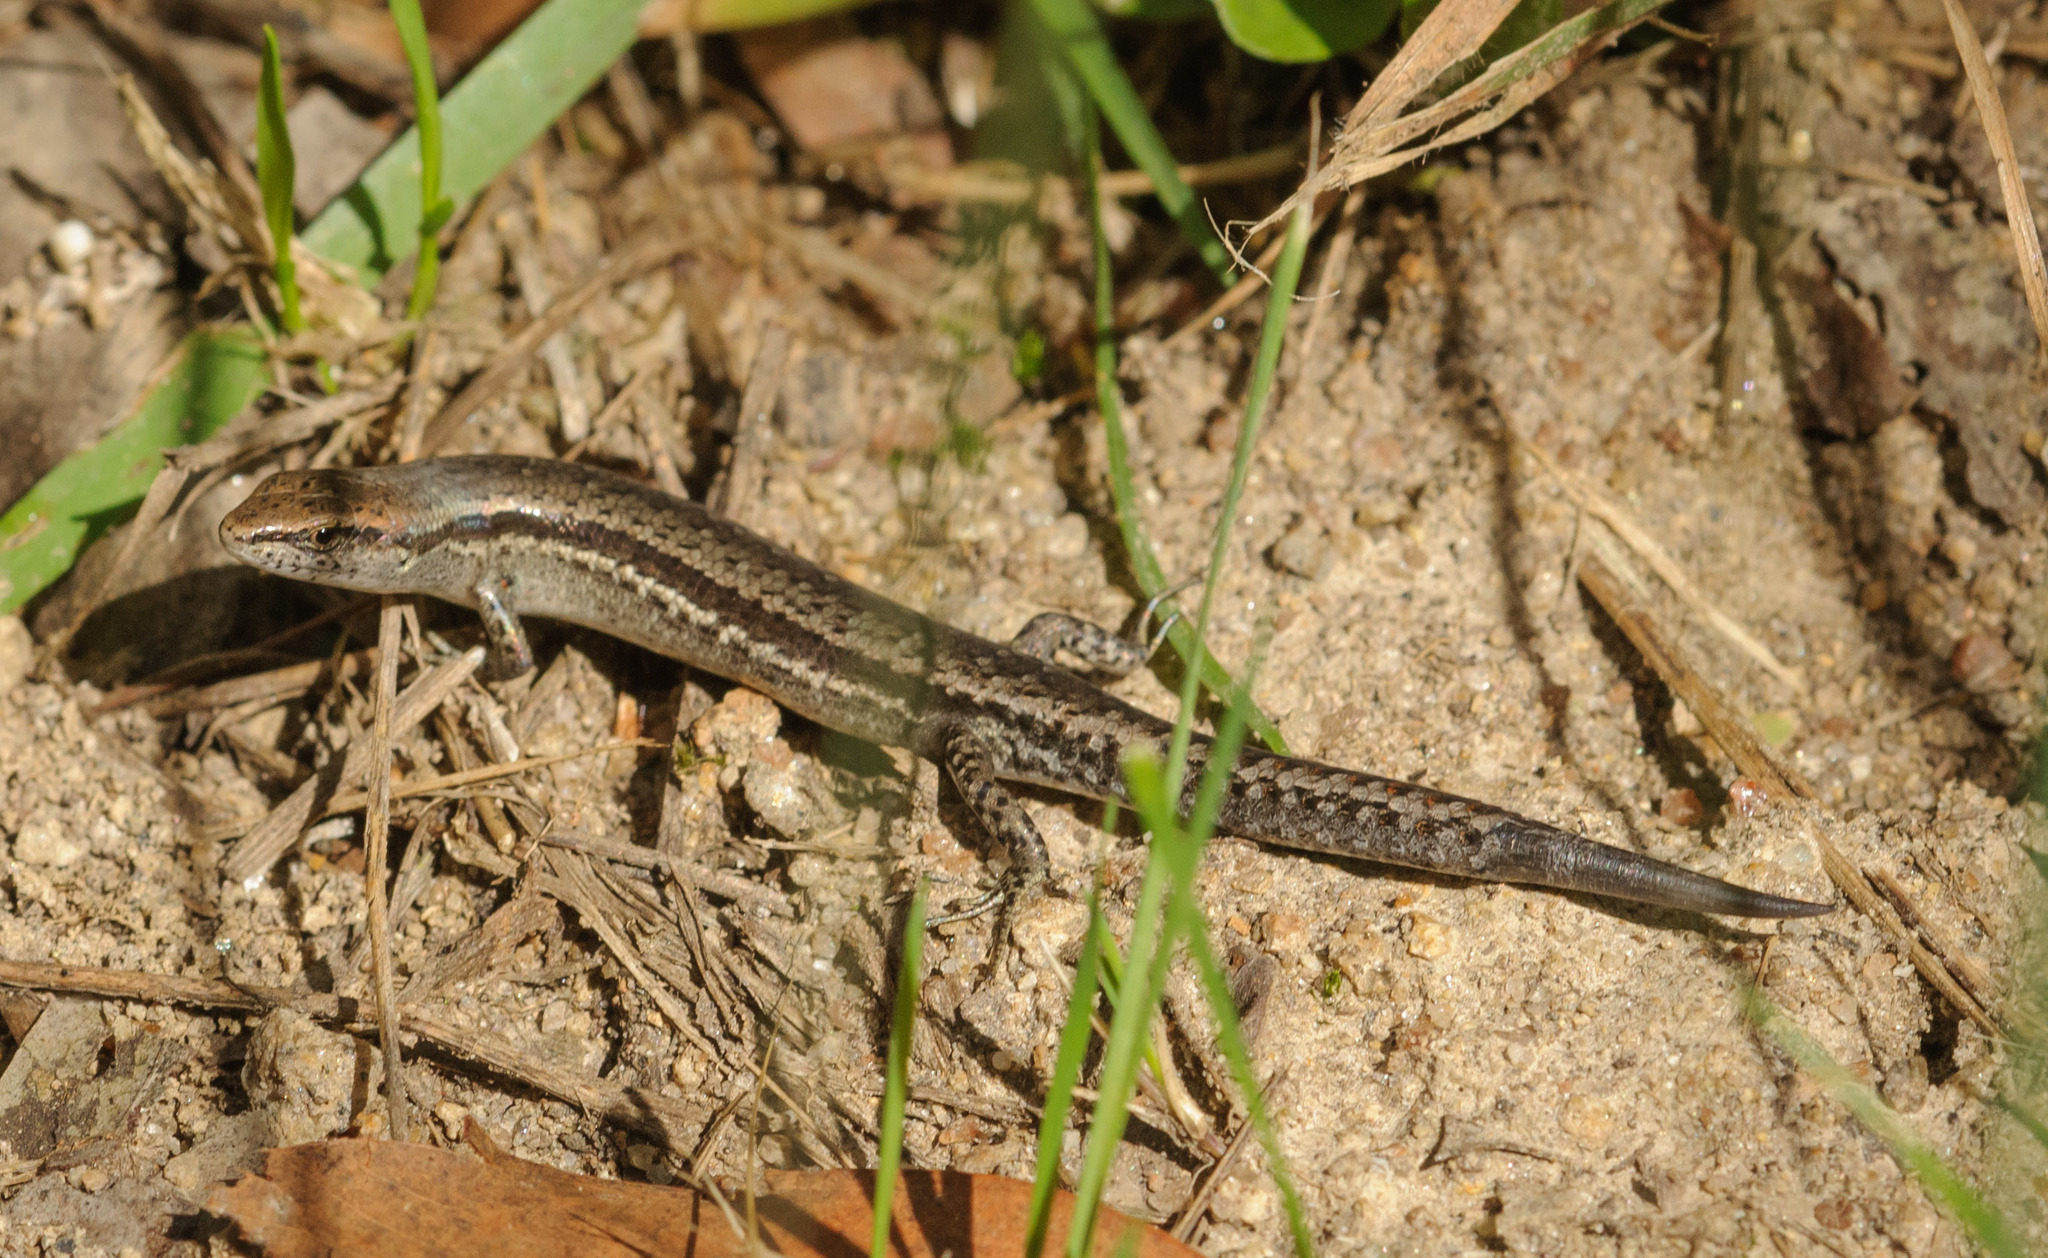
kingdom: Animalia
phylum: Chordata
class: Squamata
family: Scincidae
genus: Lampropholis
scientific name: Lampropholis guichenoti
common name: Garden skink
